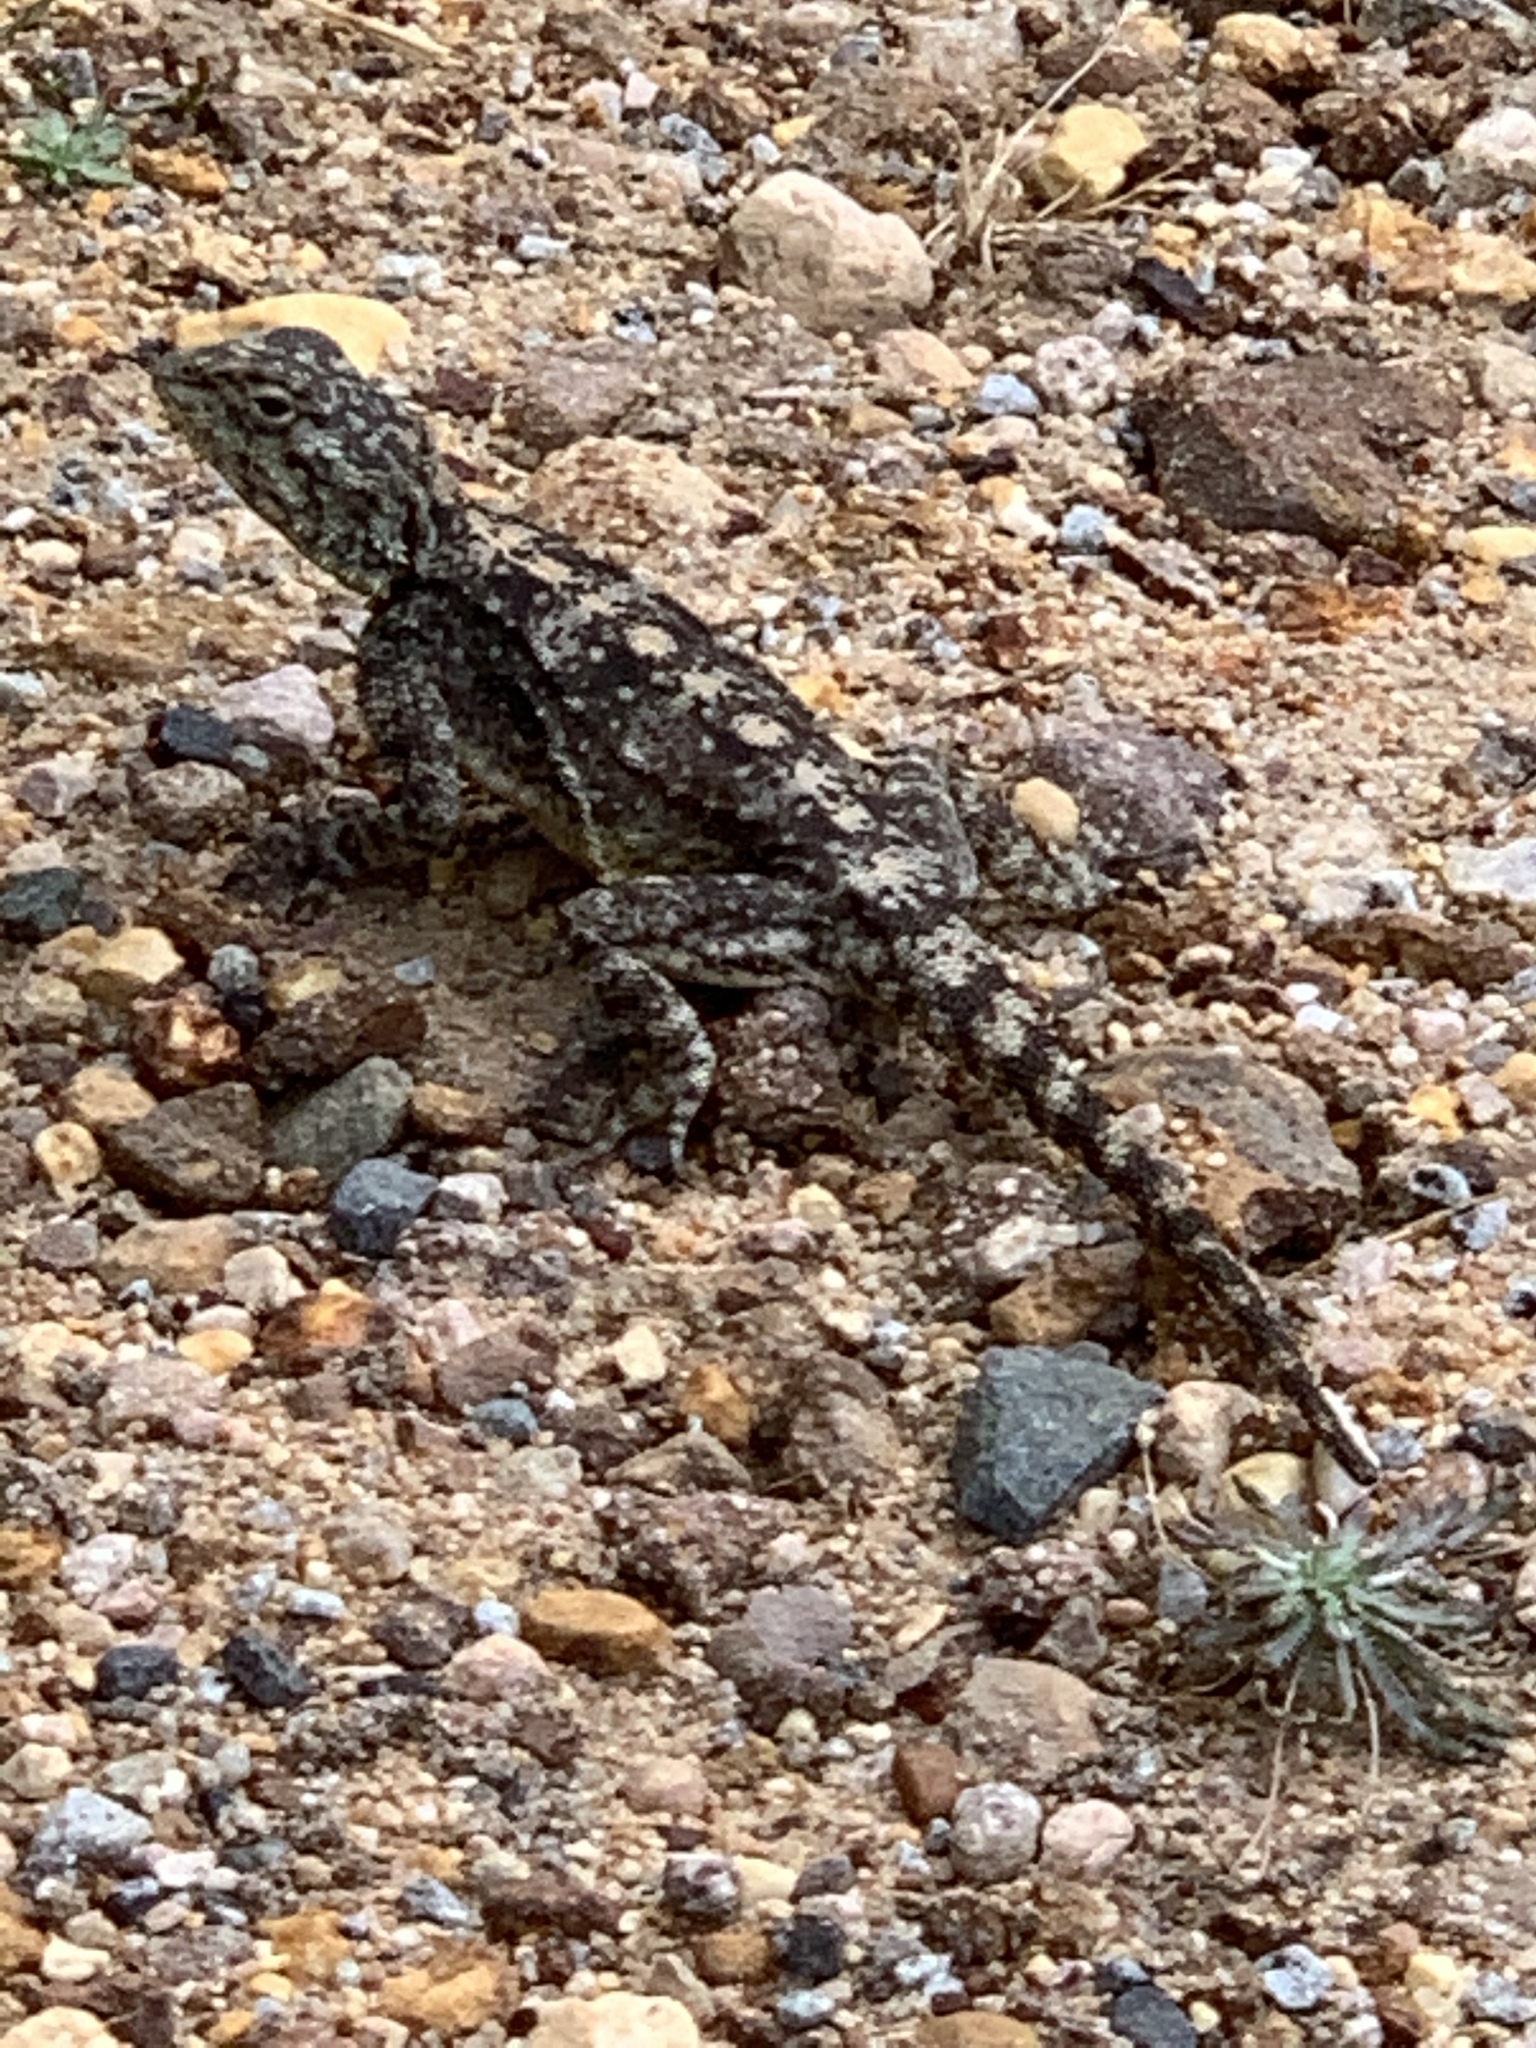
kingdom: Animalia
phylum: Chordata
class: Squamata
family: Agamidae
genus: Agama
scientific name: Agama atra
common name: Southern african rock agama
